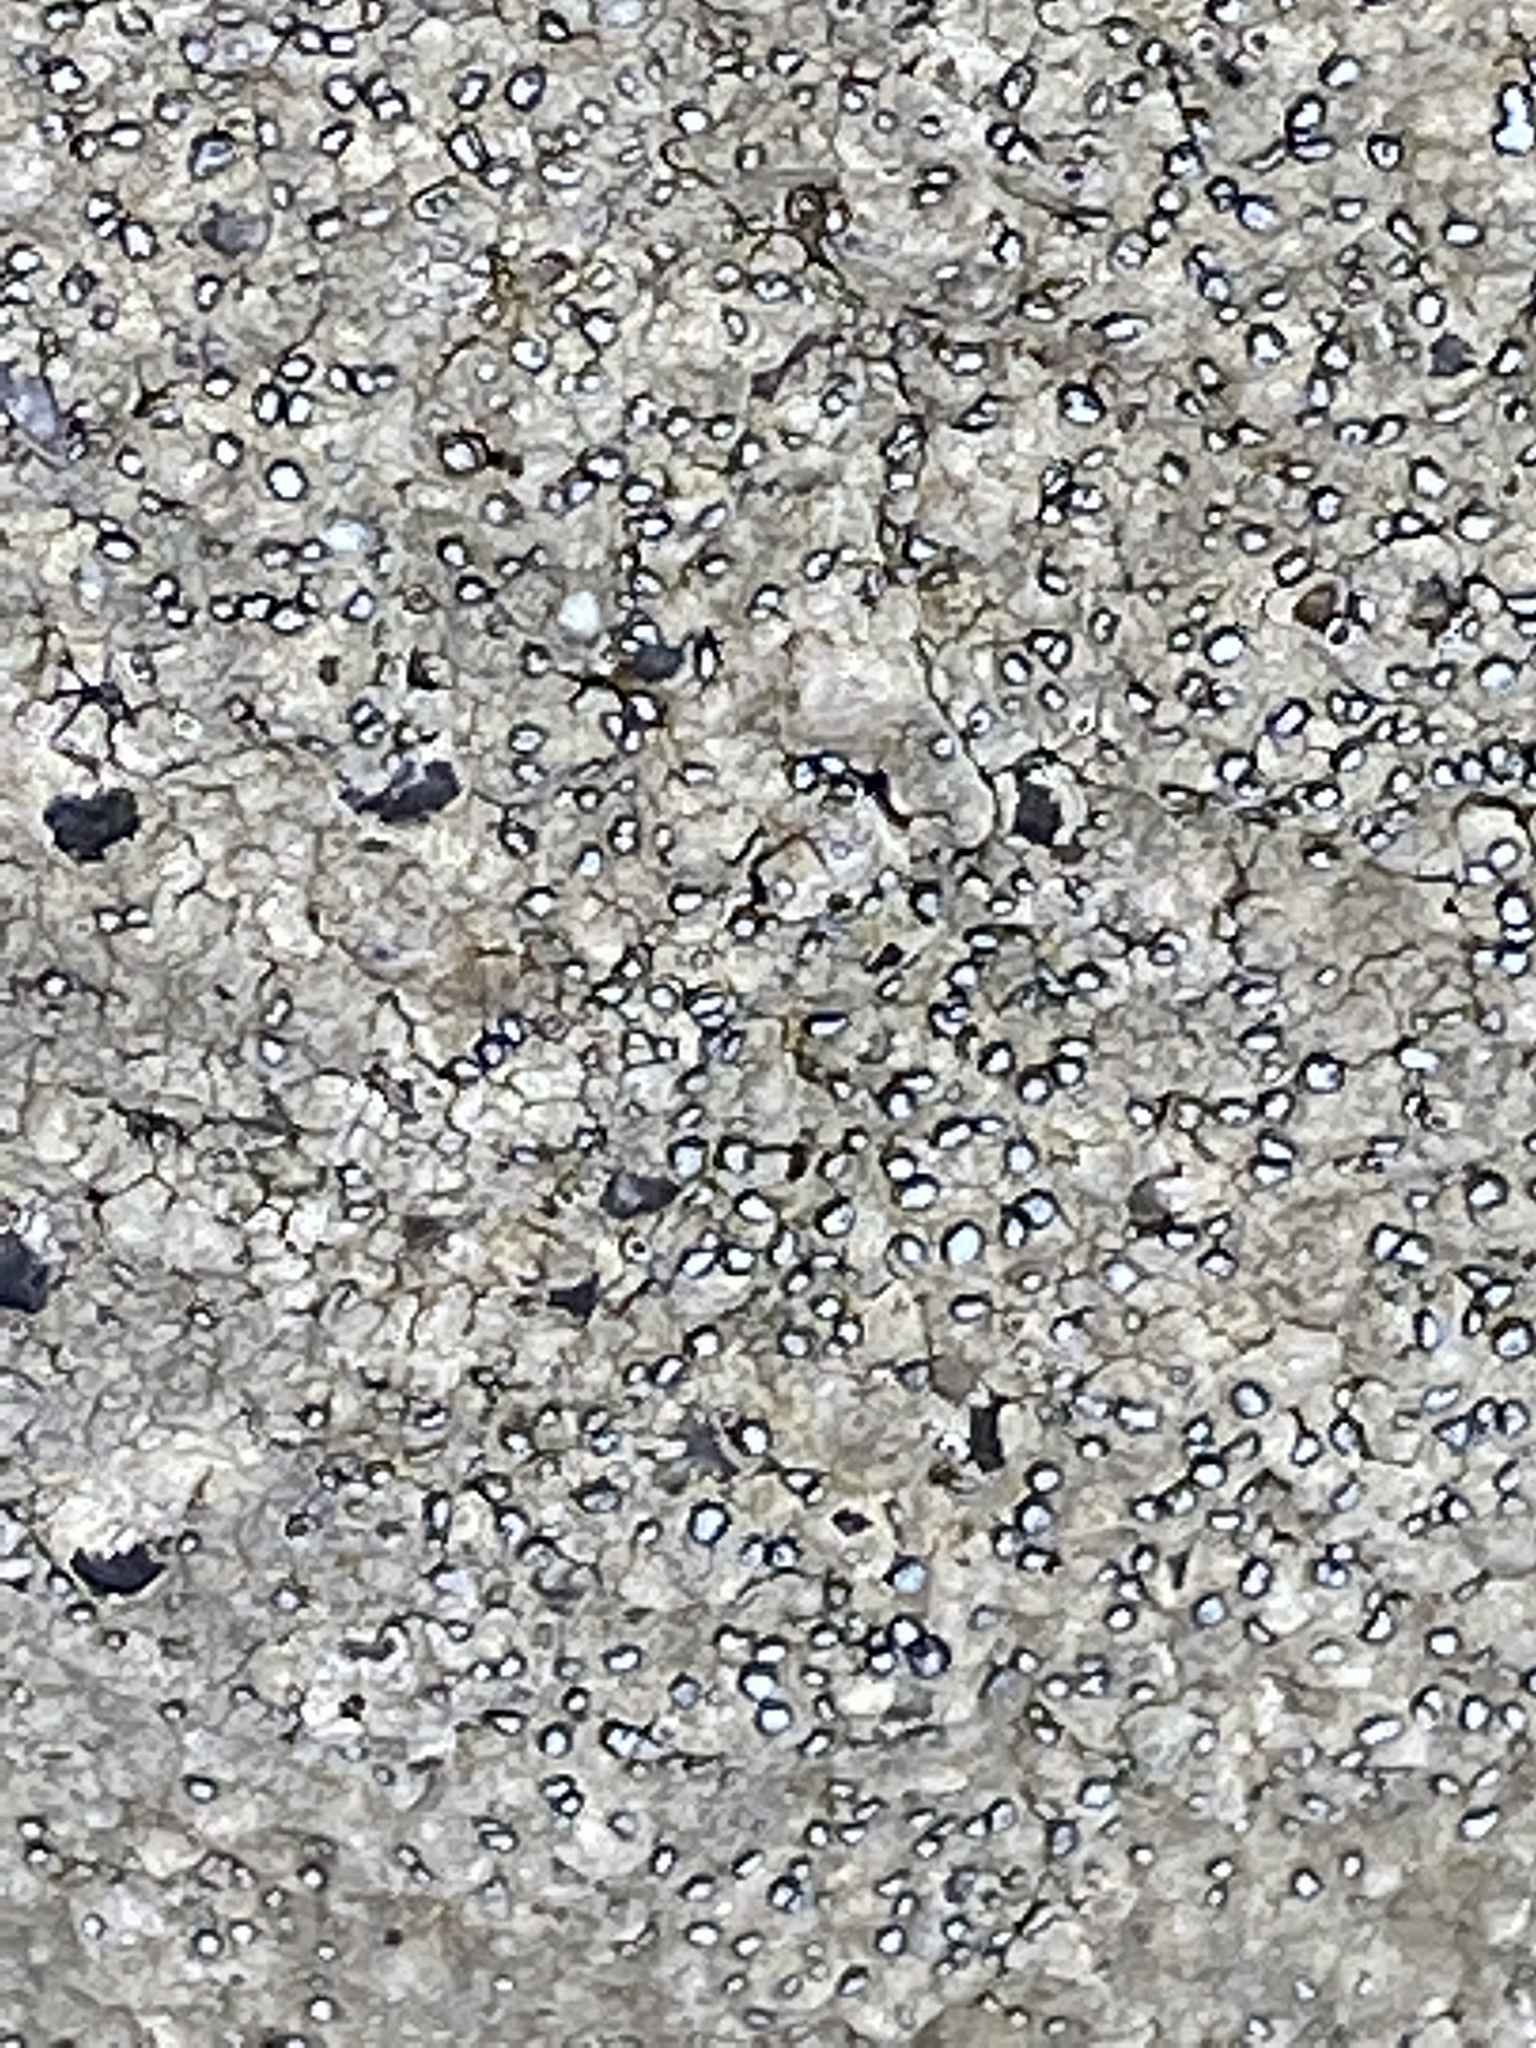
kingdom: Fungi
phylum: Ascomycota
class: Lecanoromycetes
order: Lecideales
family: Lecideaceae
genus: Porpidia
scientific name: Porpidia albocaerulescens
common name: Smokey-eyed boulder lichen
